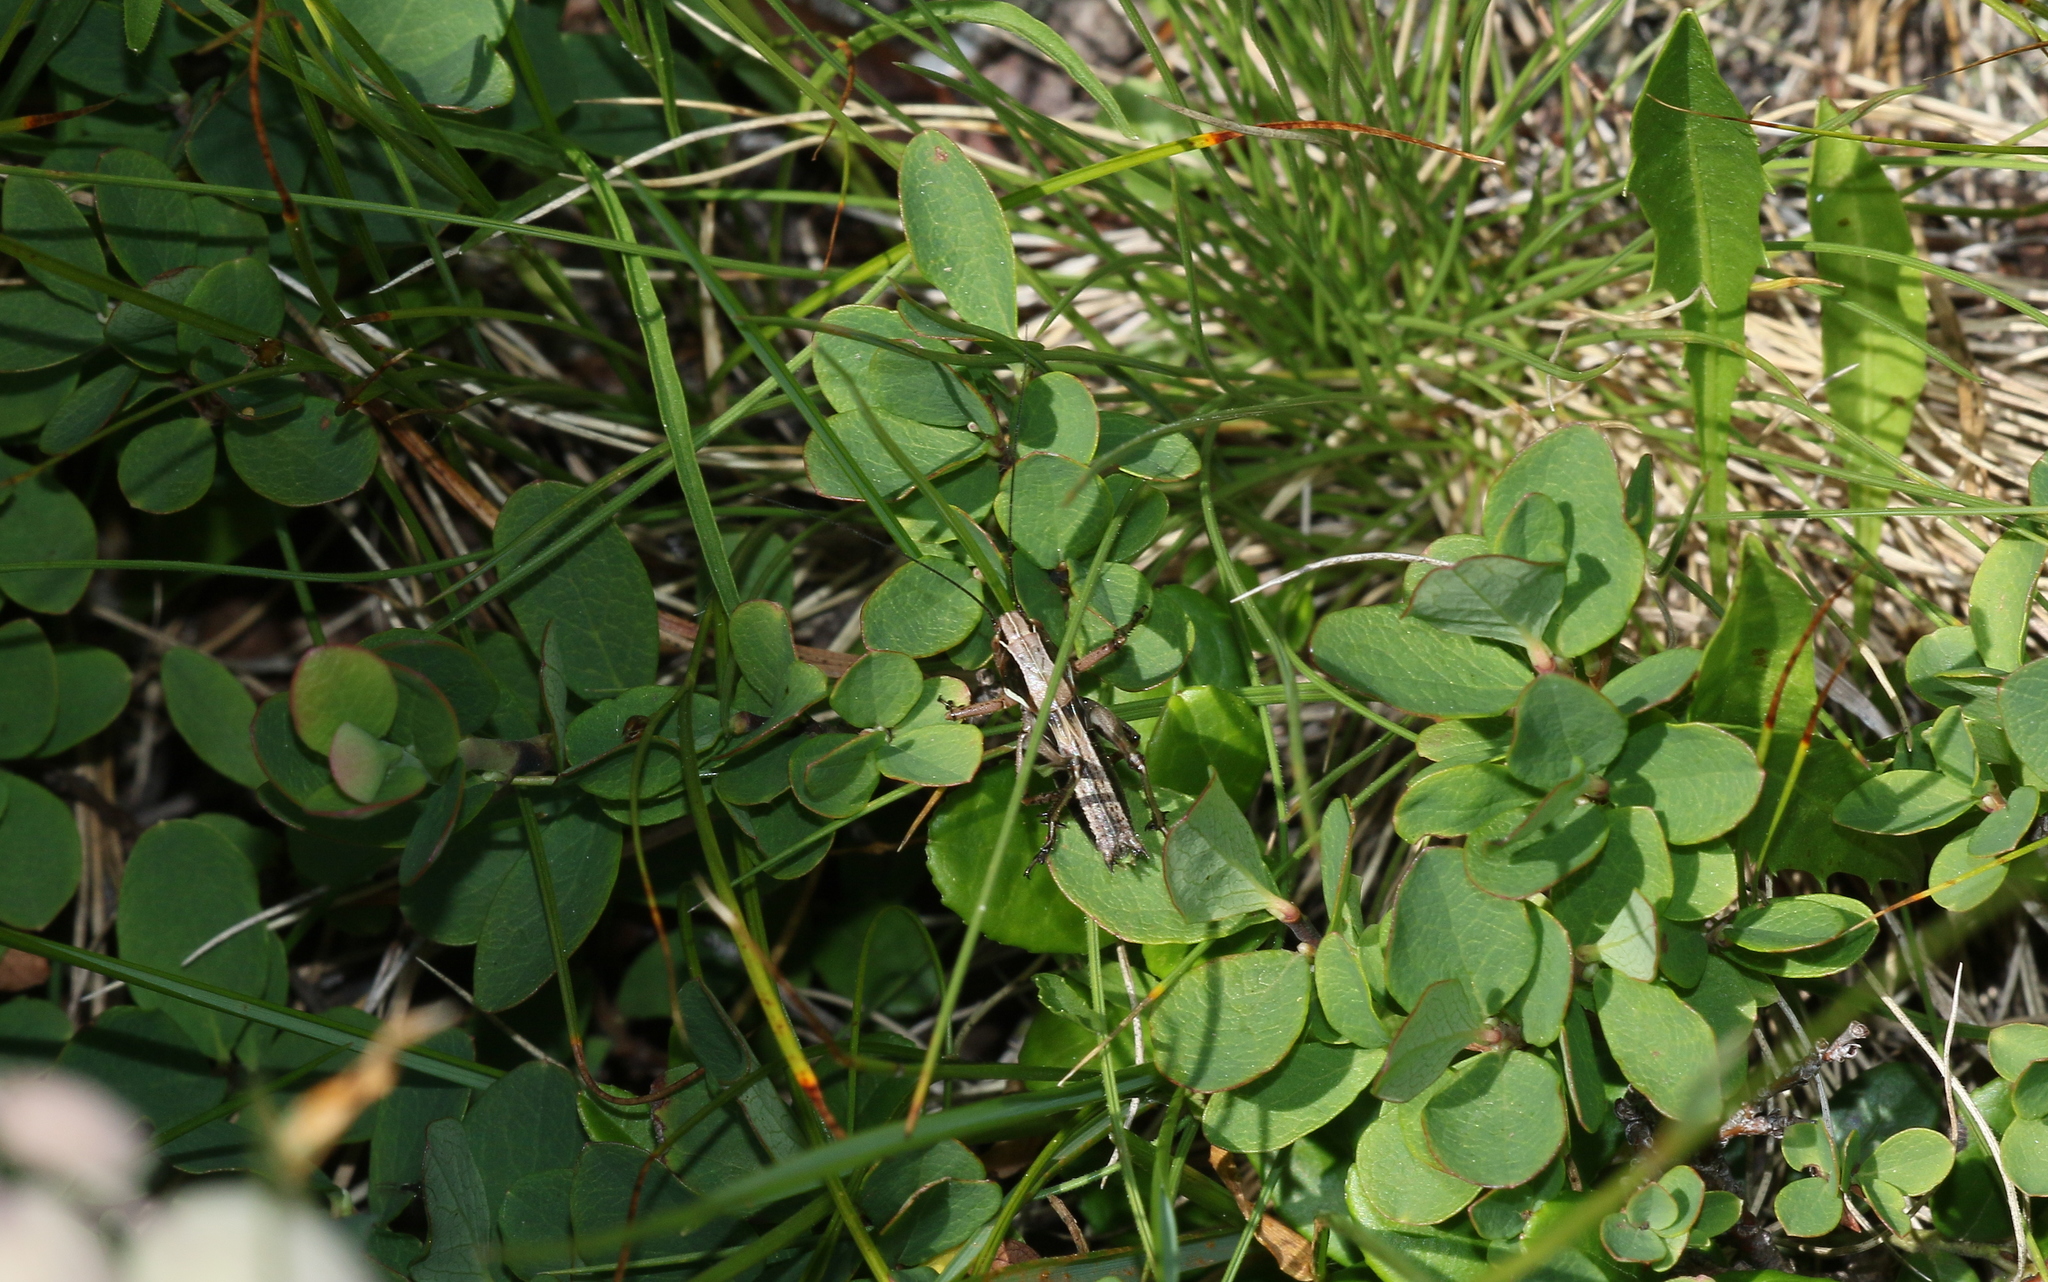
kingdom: Animalia
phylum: Arthropoda
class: Insecta
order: Orthoptera
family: Tettigoniidae
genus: Metrioptera
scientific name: Metrioptera brachyptera
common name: Bog bush-cricket
